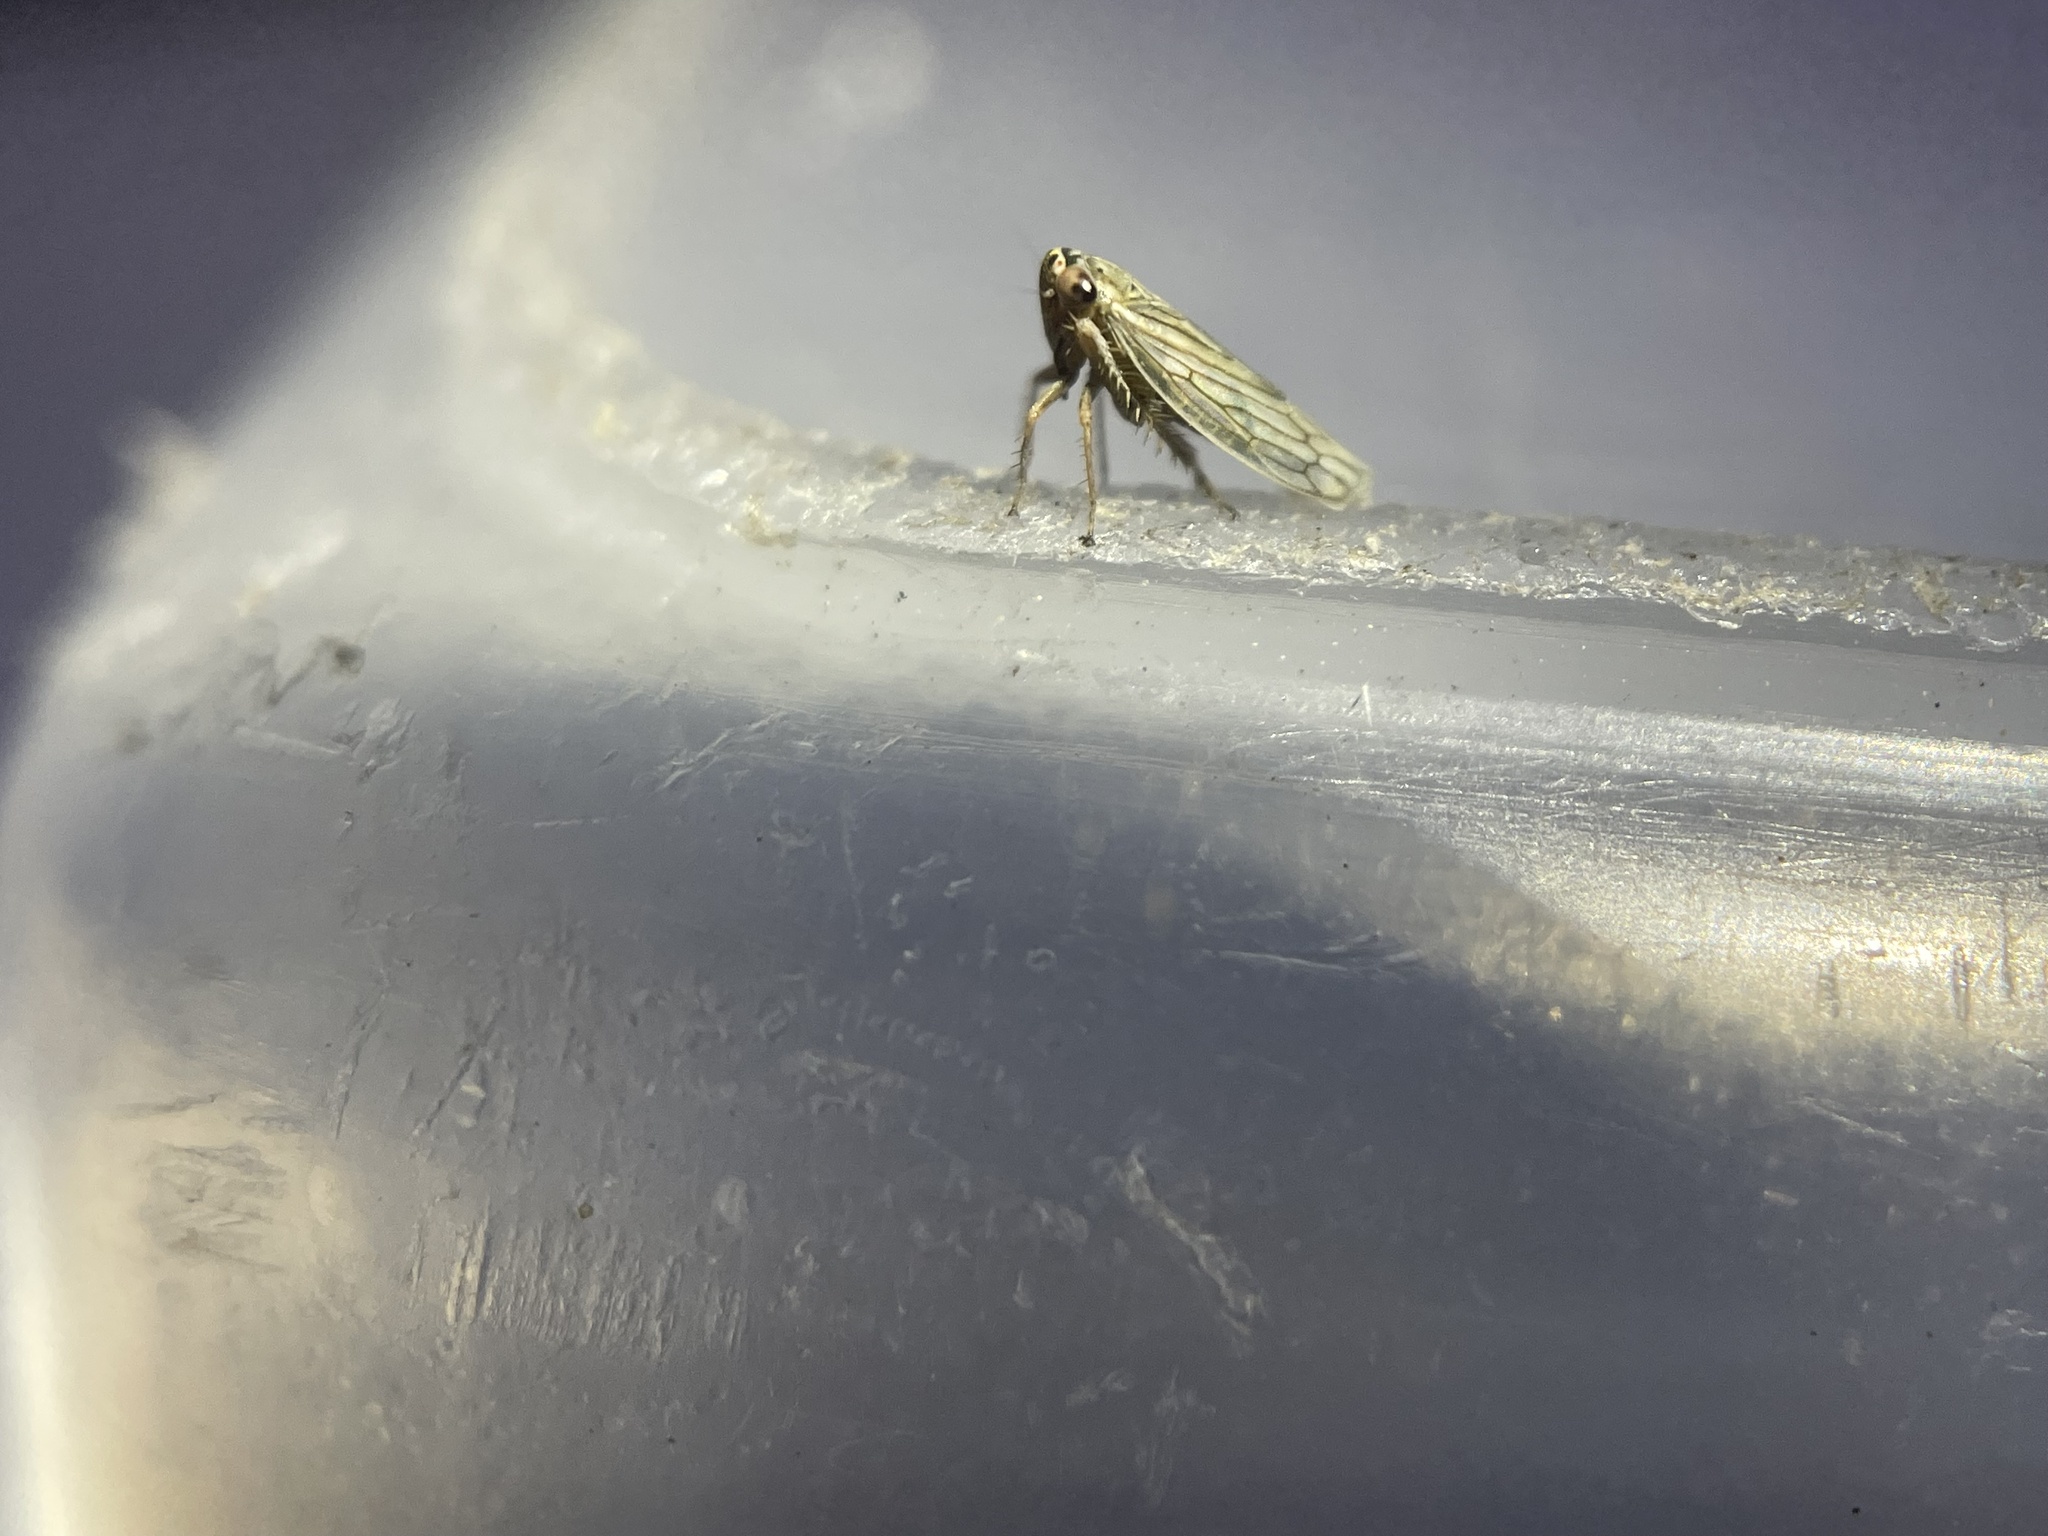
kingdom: Animalia
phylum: Arthropoda
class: Insecta
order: Hemiptera
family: Cicadellidae
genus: Exitianus
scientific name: Exitianus exitiosus
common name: Gray lawn leafhopper
